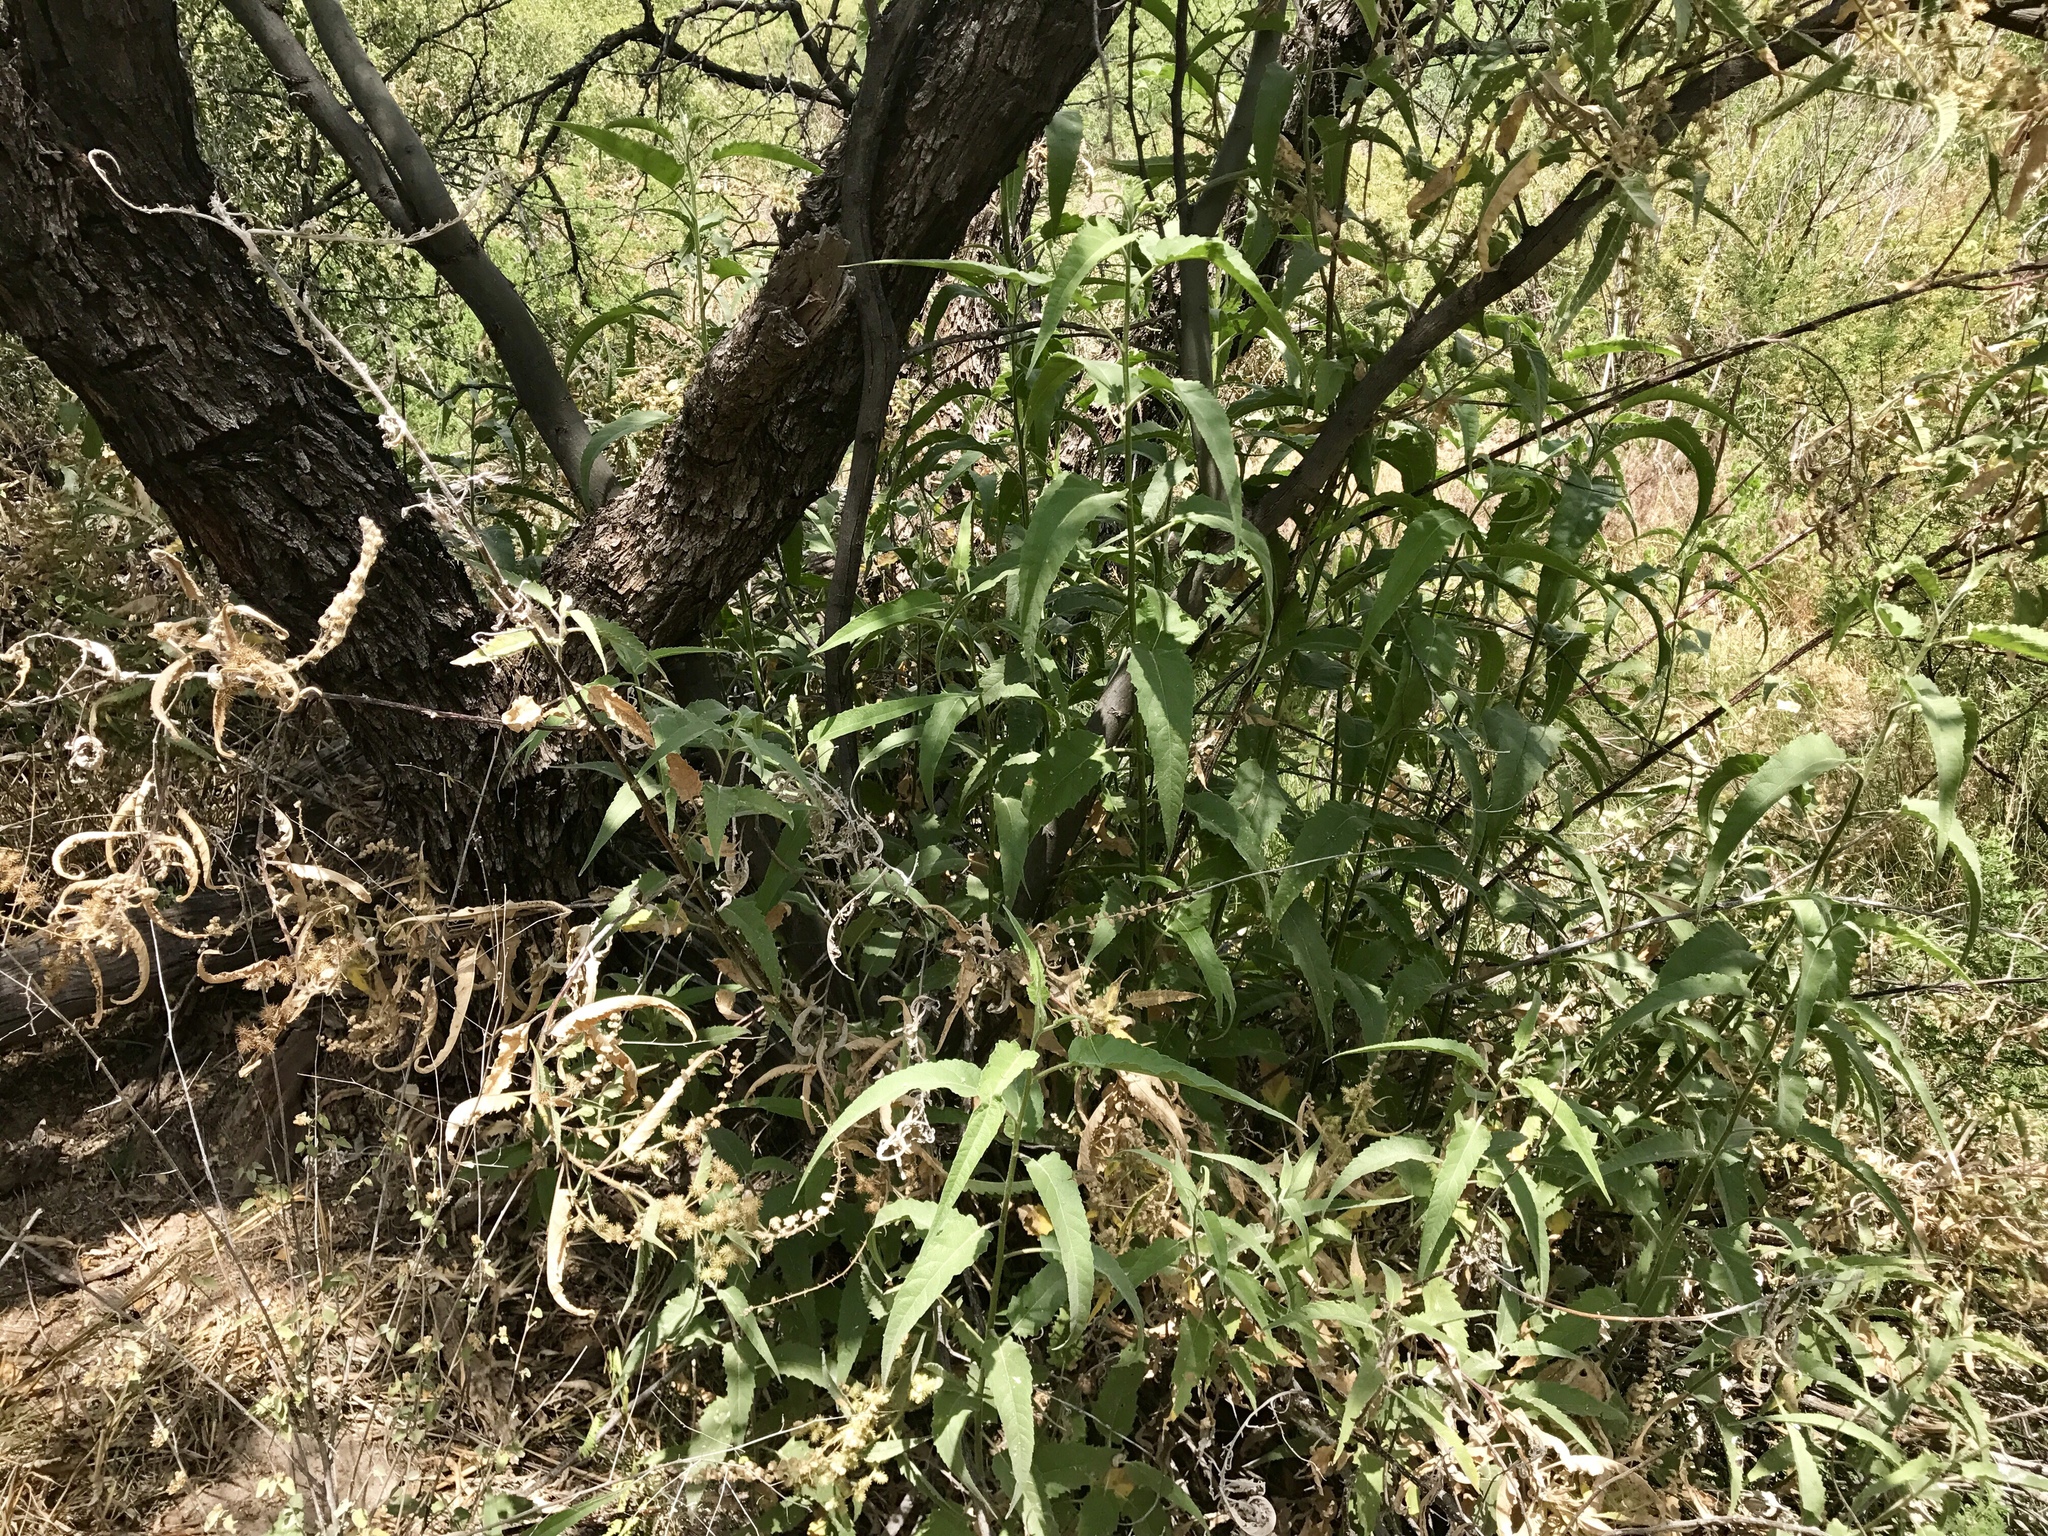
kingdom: Plantae
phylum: Tracheophyta
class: Magnoliopsida
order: Asterales
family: Asteraceae
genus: Ambrosia
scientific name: Ambrosia ambrosioides
